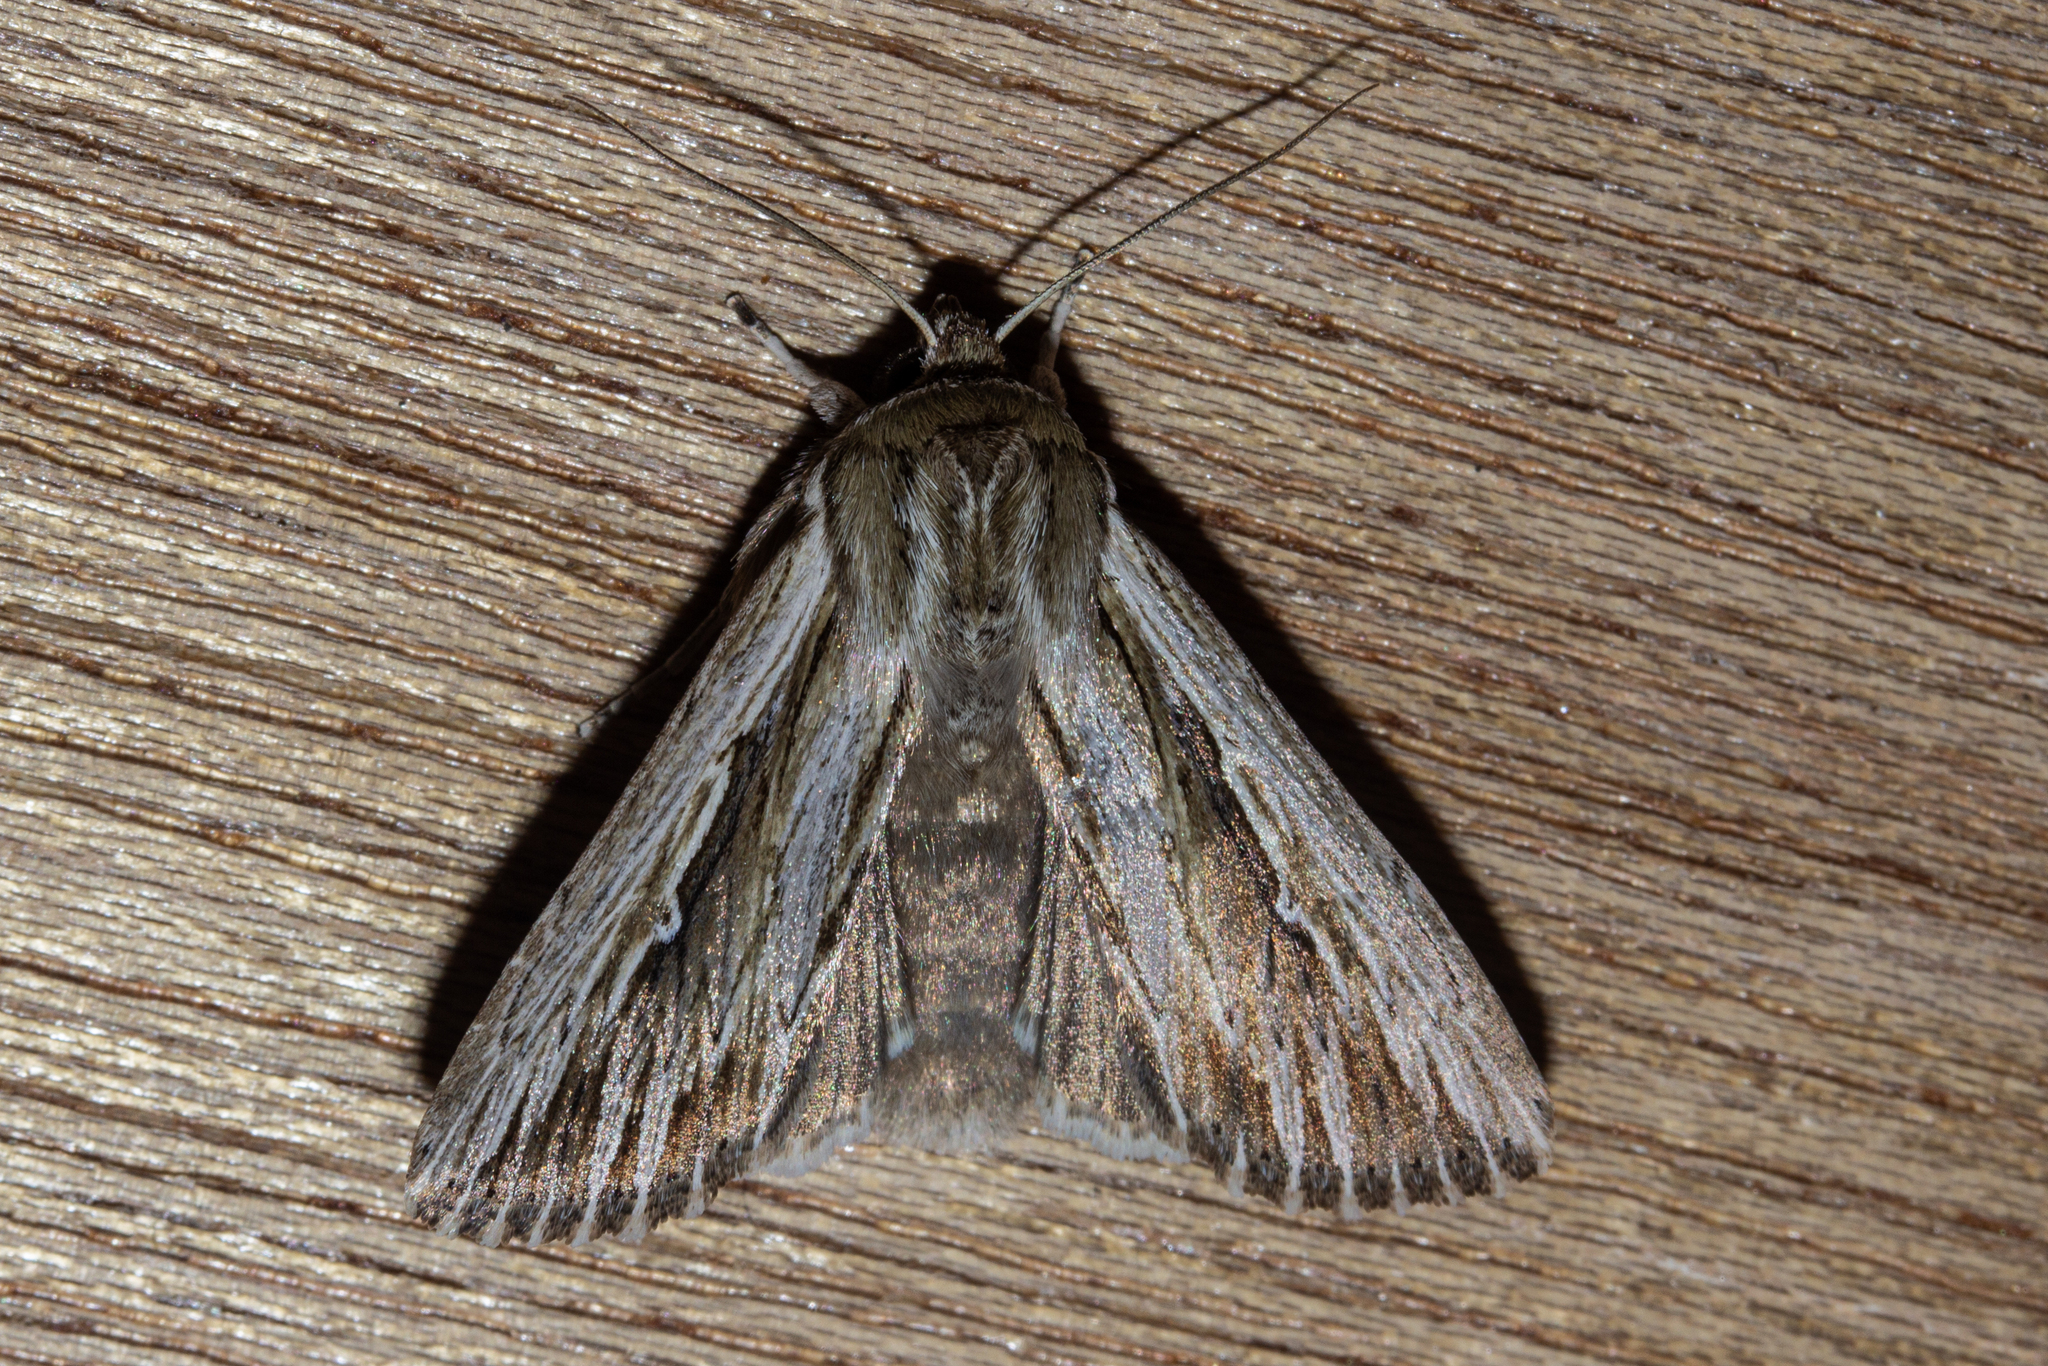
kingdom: Animalia
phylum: Arthropoda
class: Insecta
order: Lepidoptera
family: Noctuidae
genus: Persectania
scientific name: Persectania aversa
